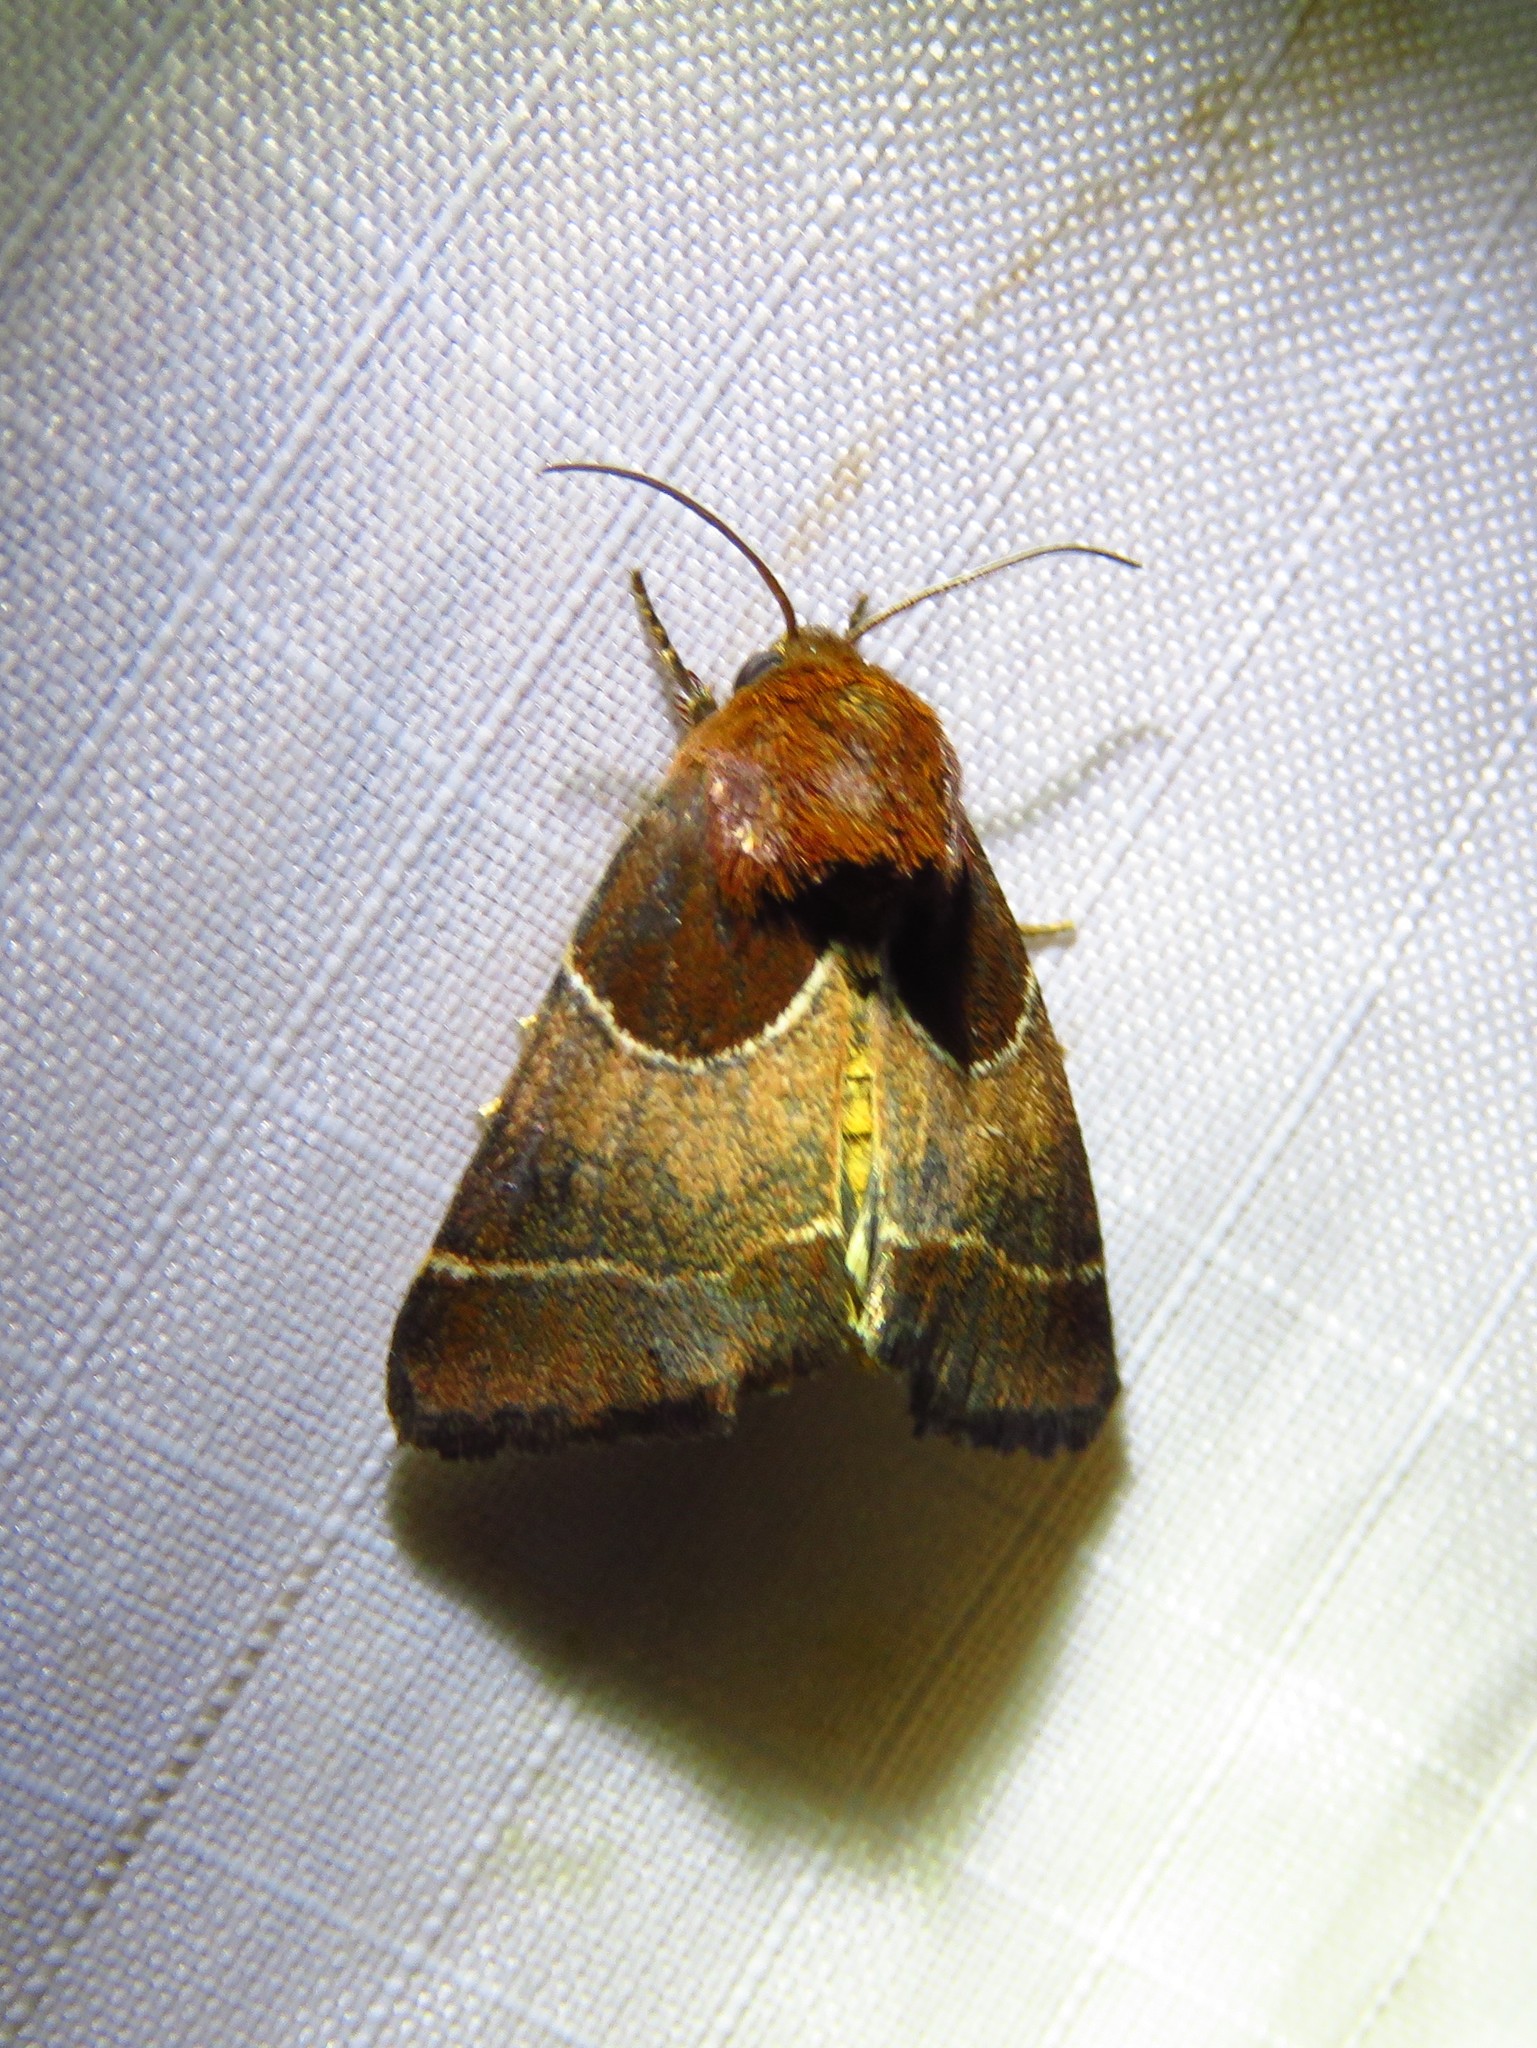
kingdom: Animalia
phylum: Arthropoda
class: Insecta
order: Lepidoptera
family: Noctuidae
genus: Schinia
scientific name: Schinia arcigera
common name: Arcigera flower moth
